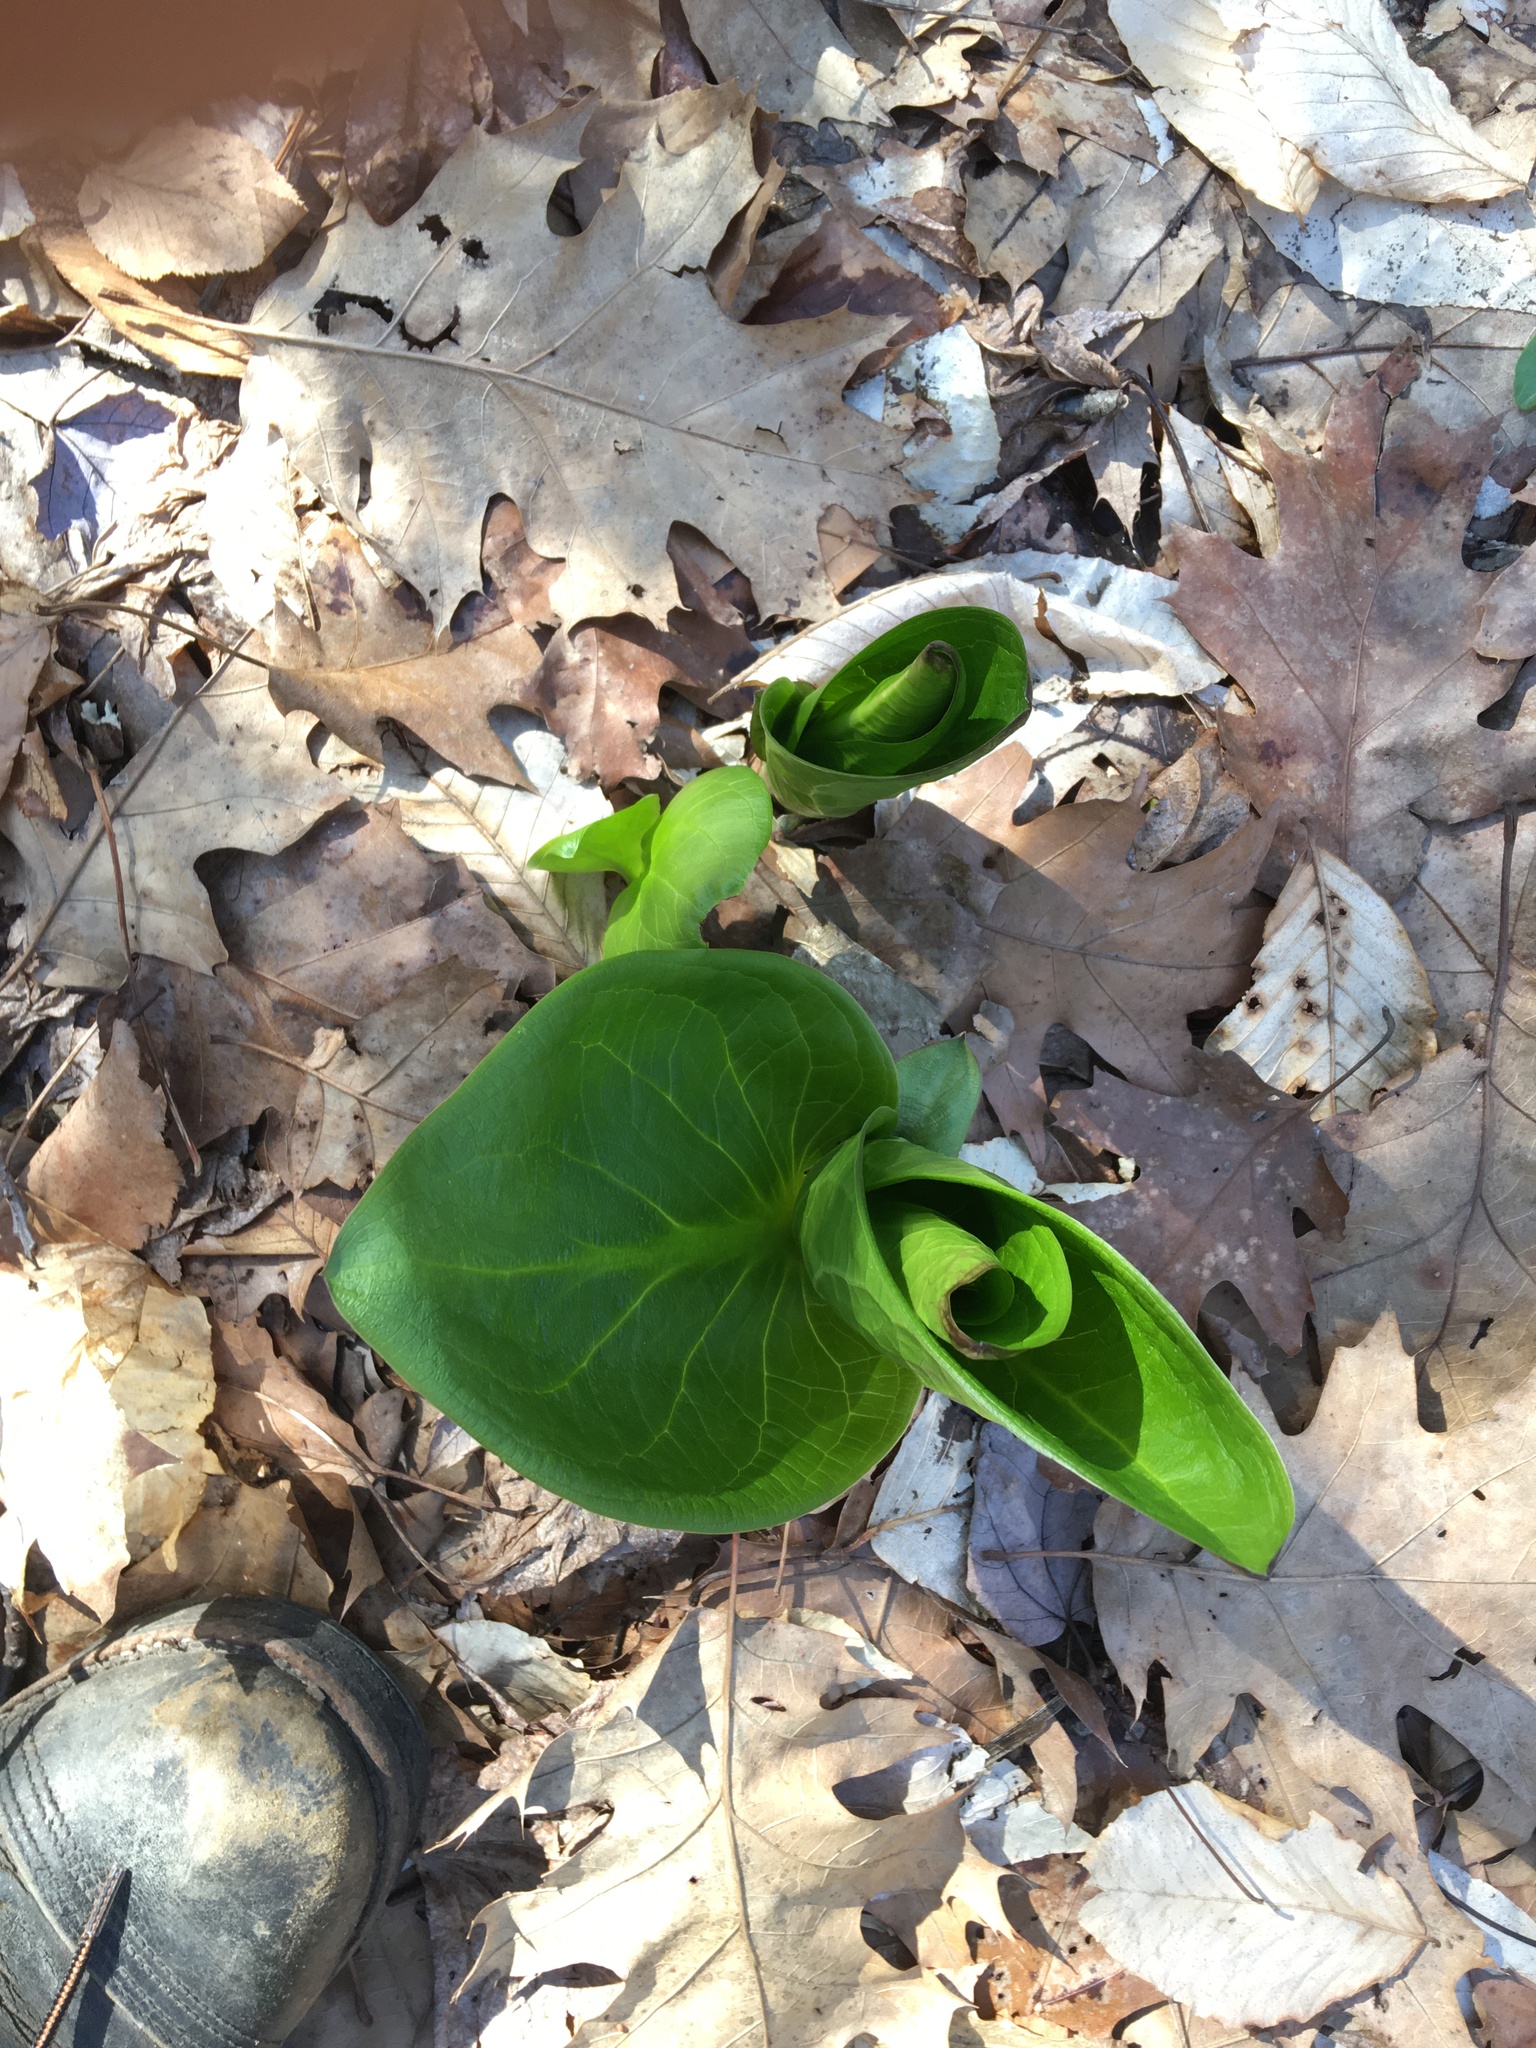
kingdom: Plantae
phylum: Tracheophyta
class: Liliopsida
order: Alismatales
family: Araceae
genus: Symplocarpus
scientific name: Symplocarpus foetidus
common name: Eastern skunk cabbage
